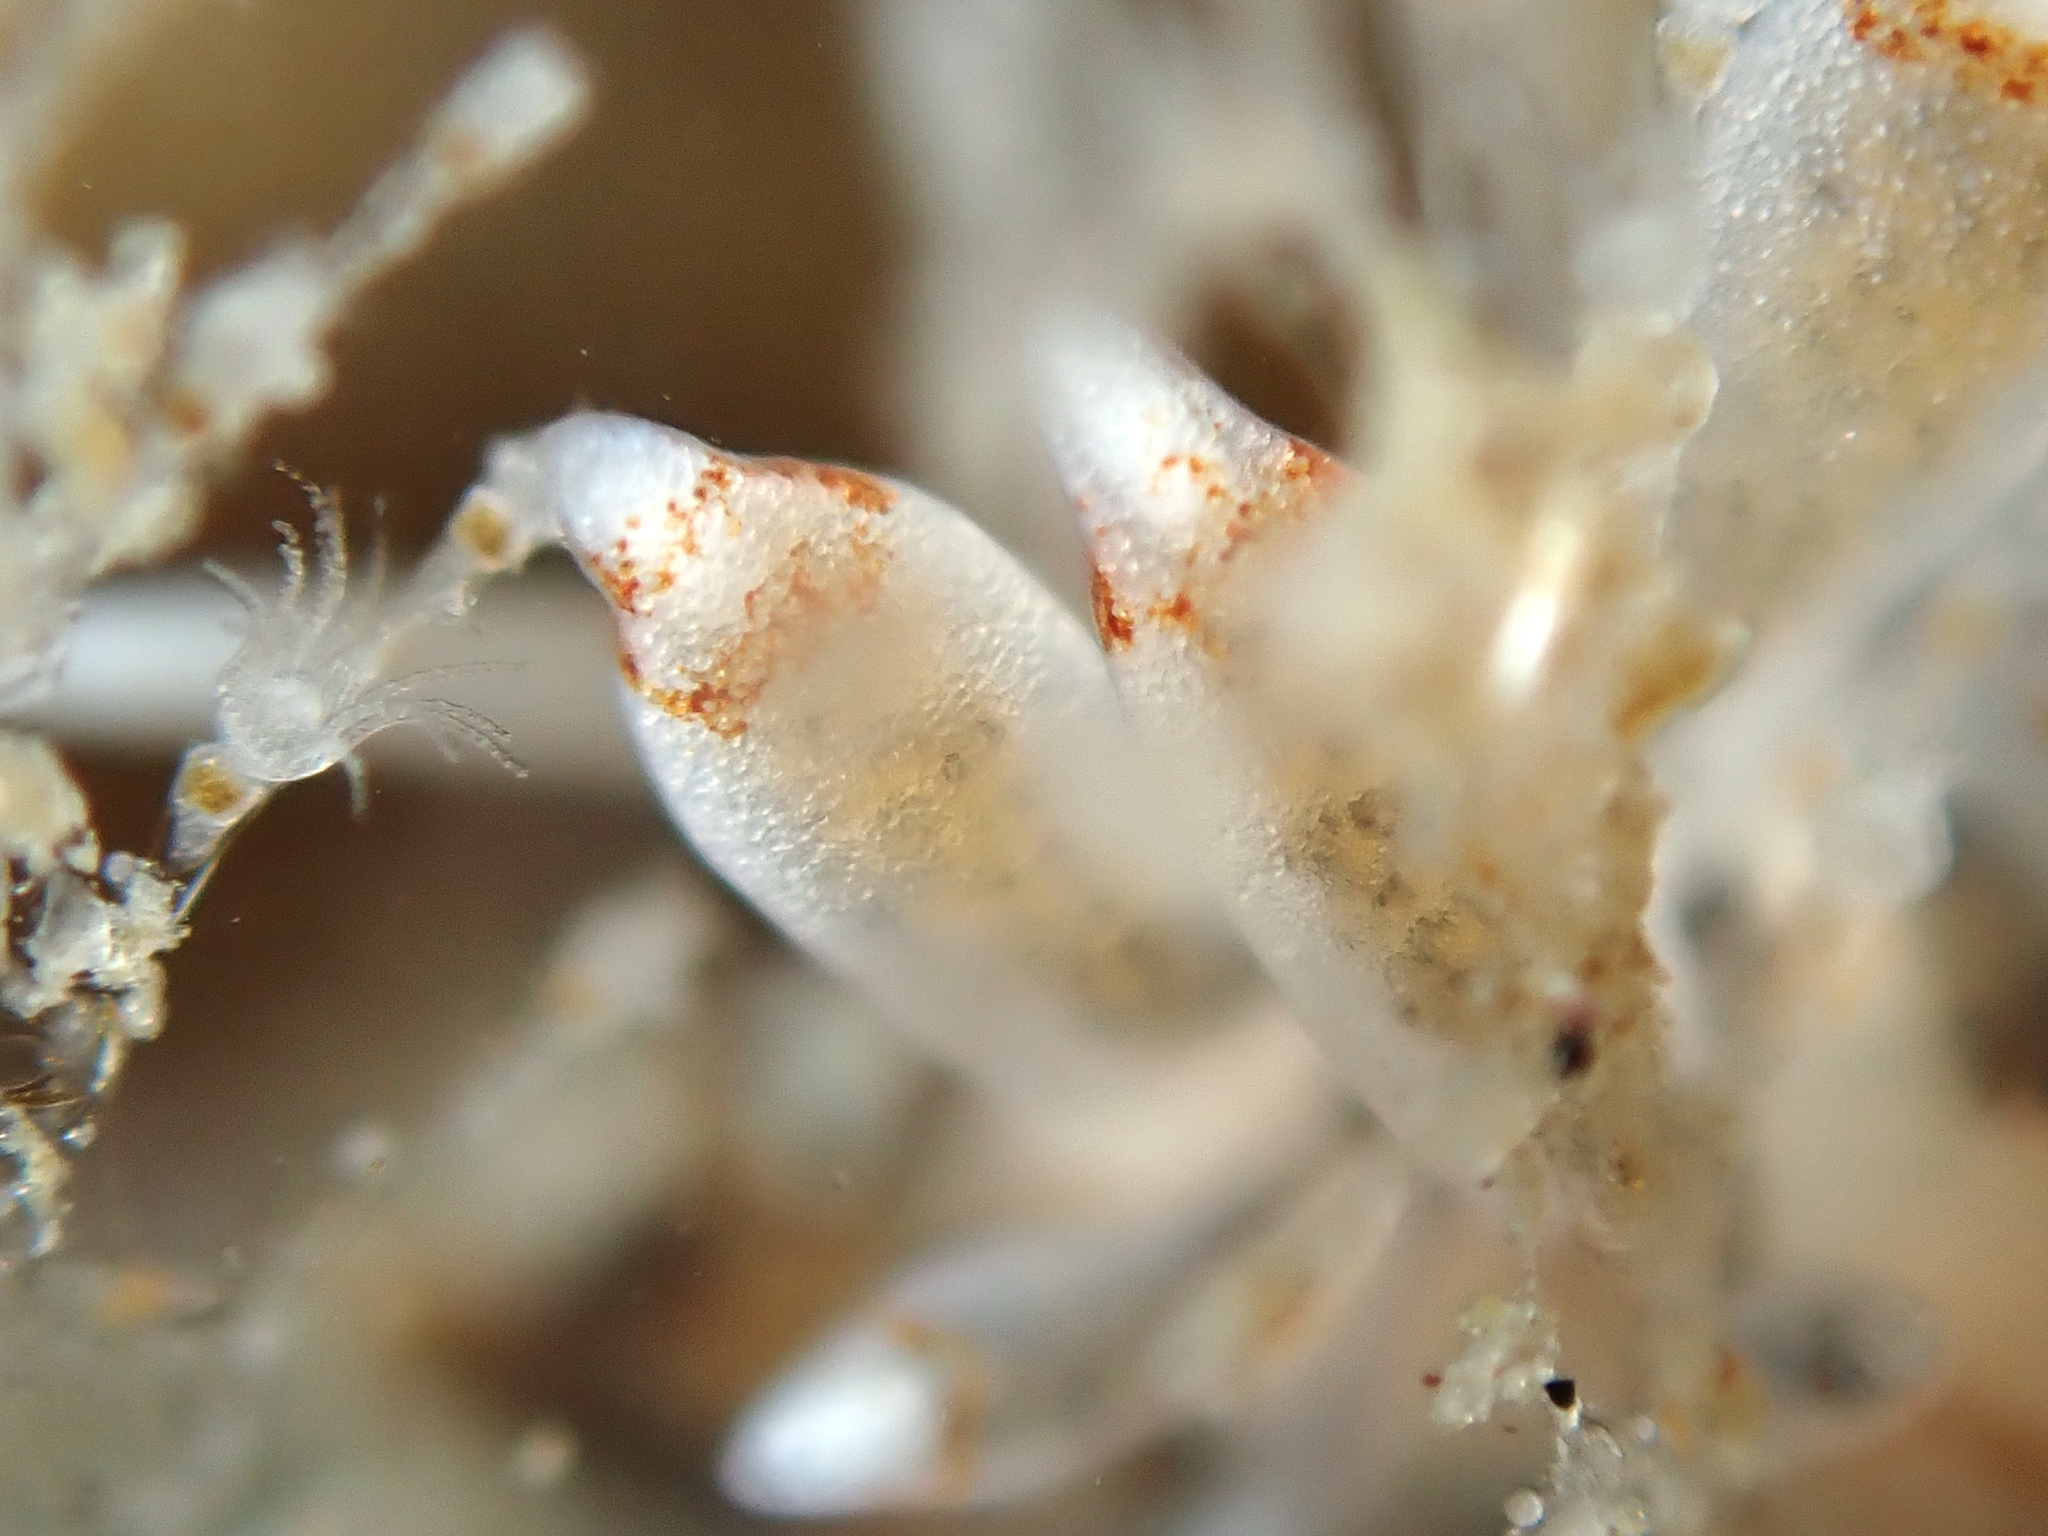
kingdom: Animalia
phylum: Mollusca
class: Gastropoda
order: Nudibranchia
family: Eubranchidae
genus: Eubranchus
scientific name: Eubranchus agrius
